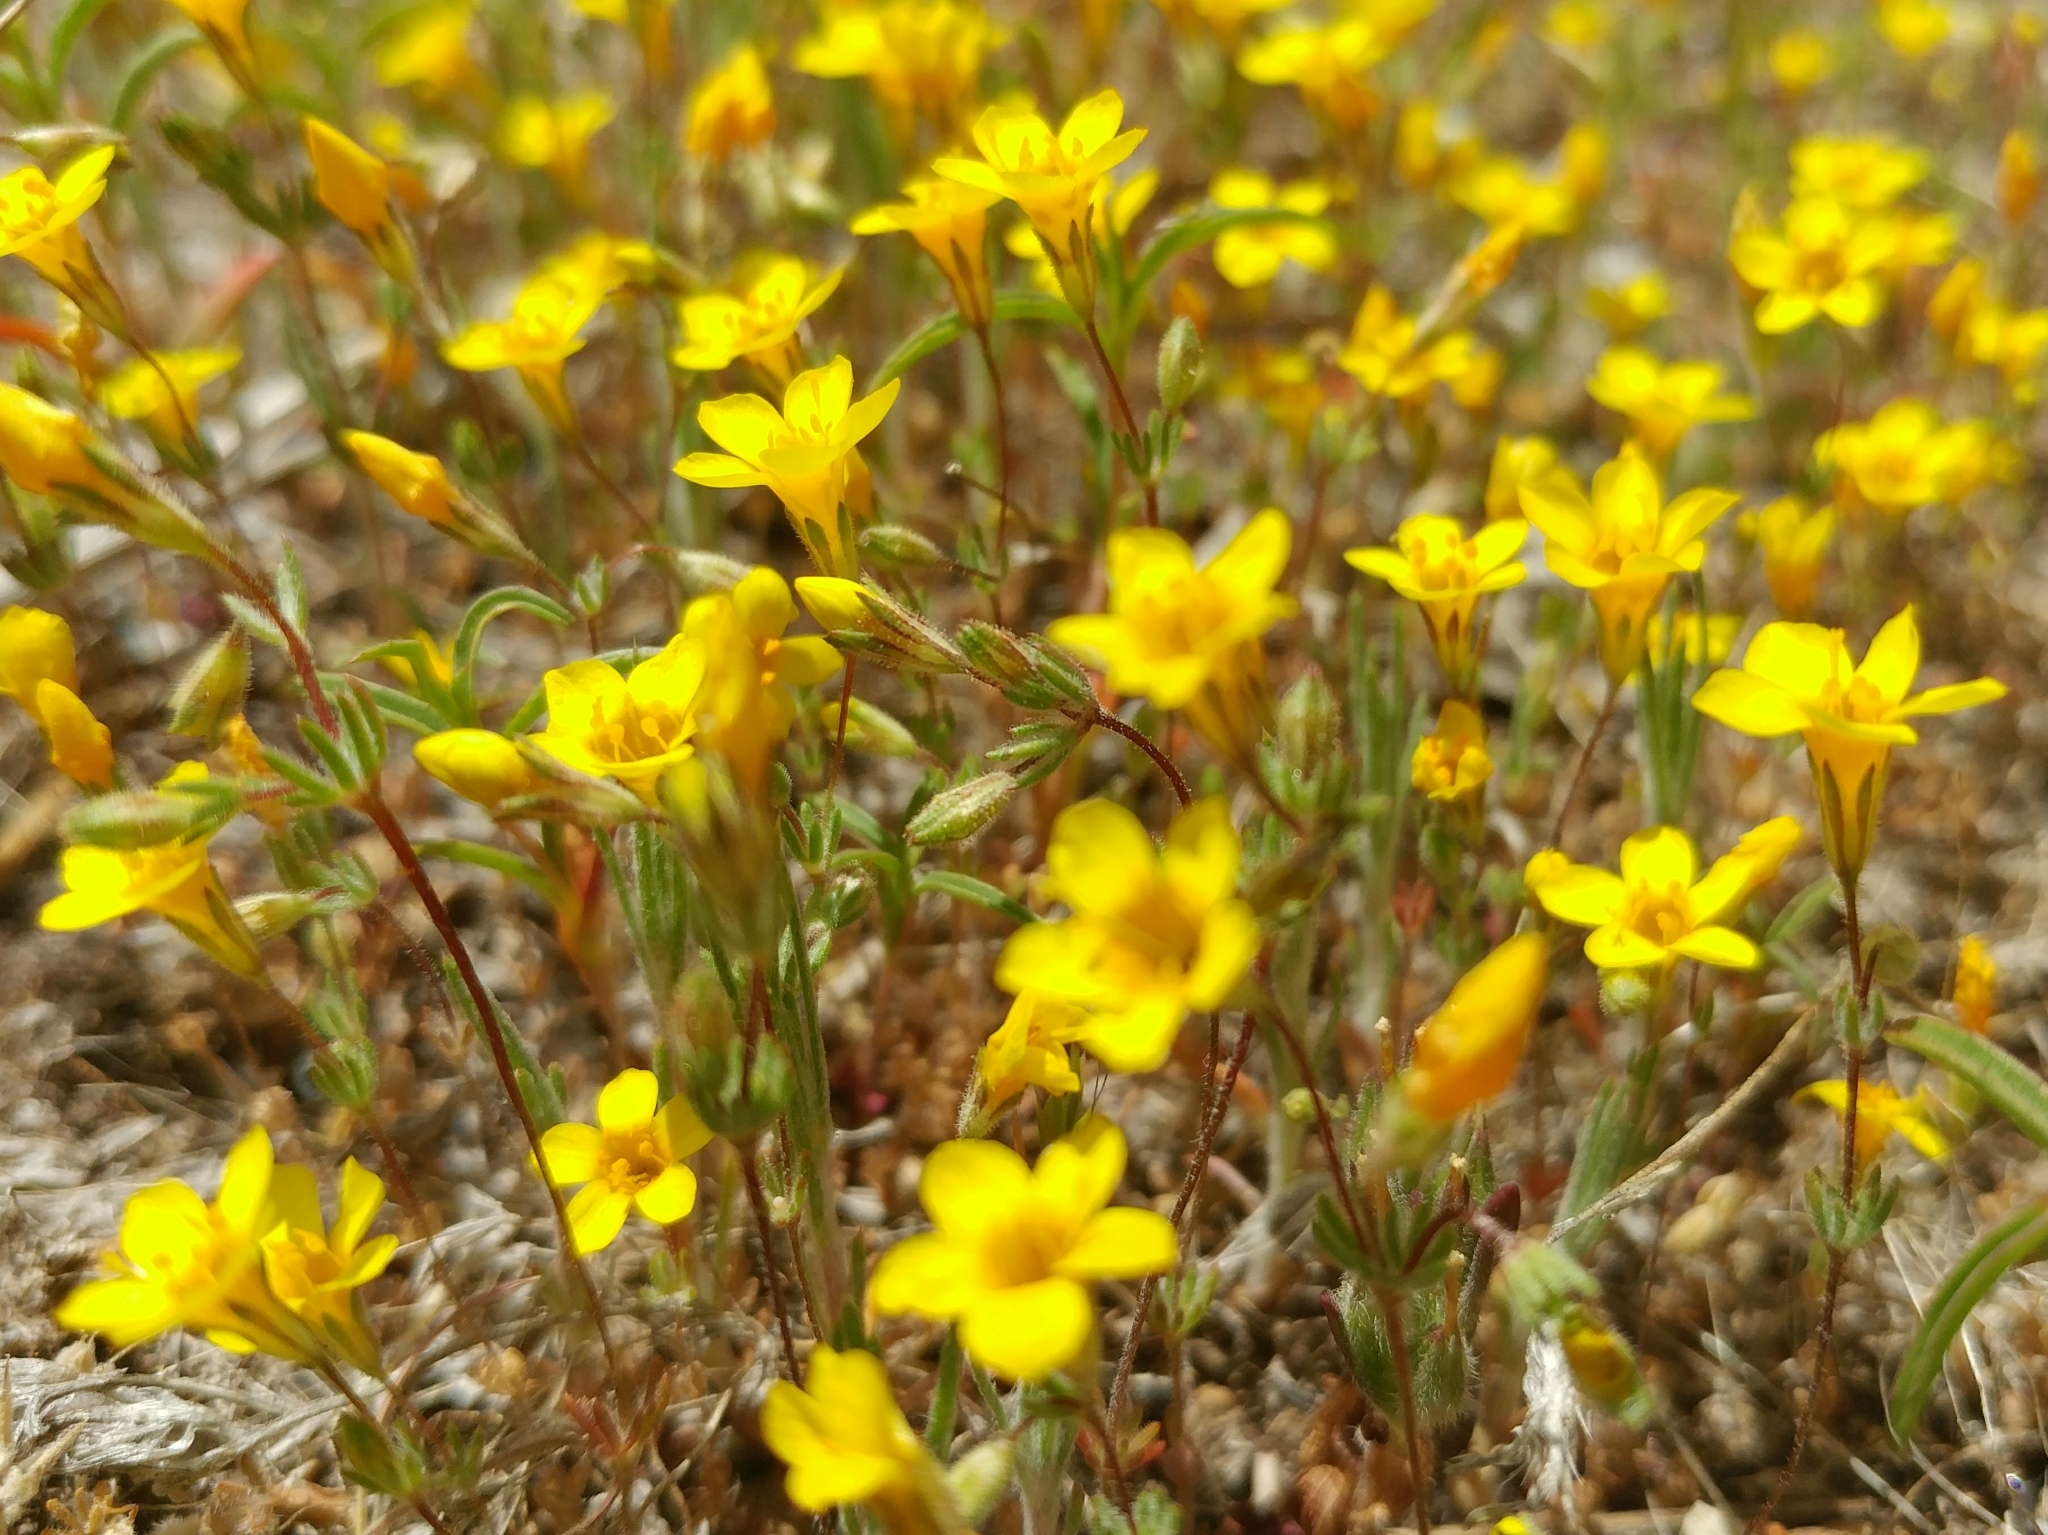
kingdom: Plantae
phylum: Tracheophyta
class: Magnoliopsida
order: Ericales
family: Polemoniaceae
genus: Leptosiphon
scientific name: Leptosiphon chrysanthus
